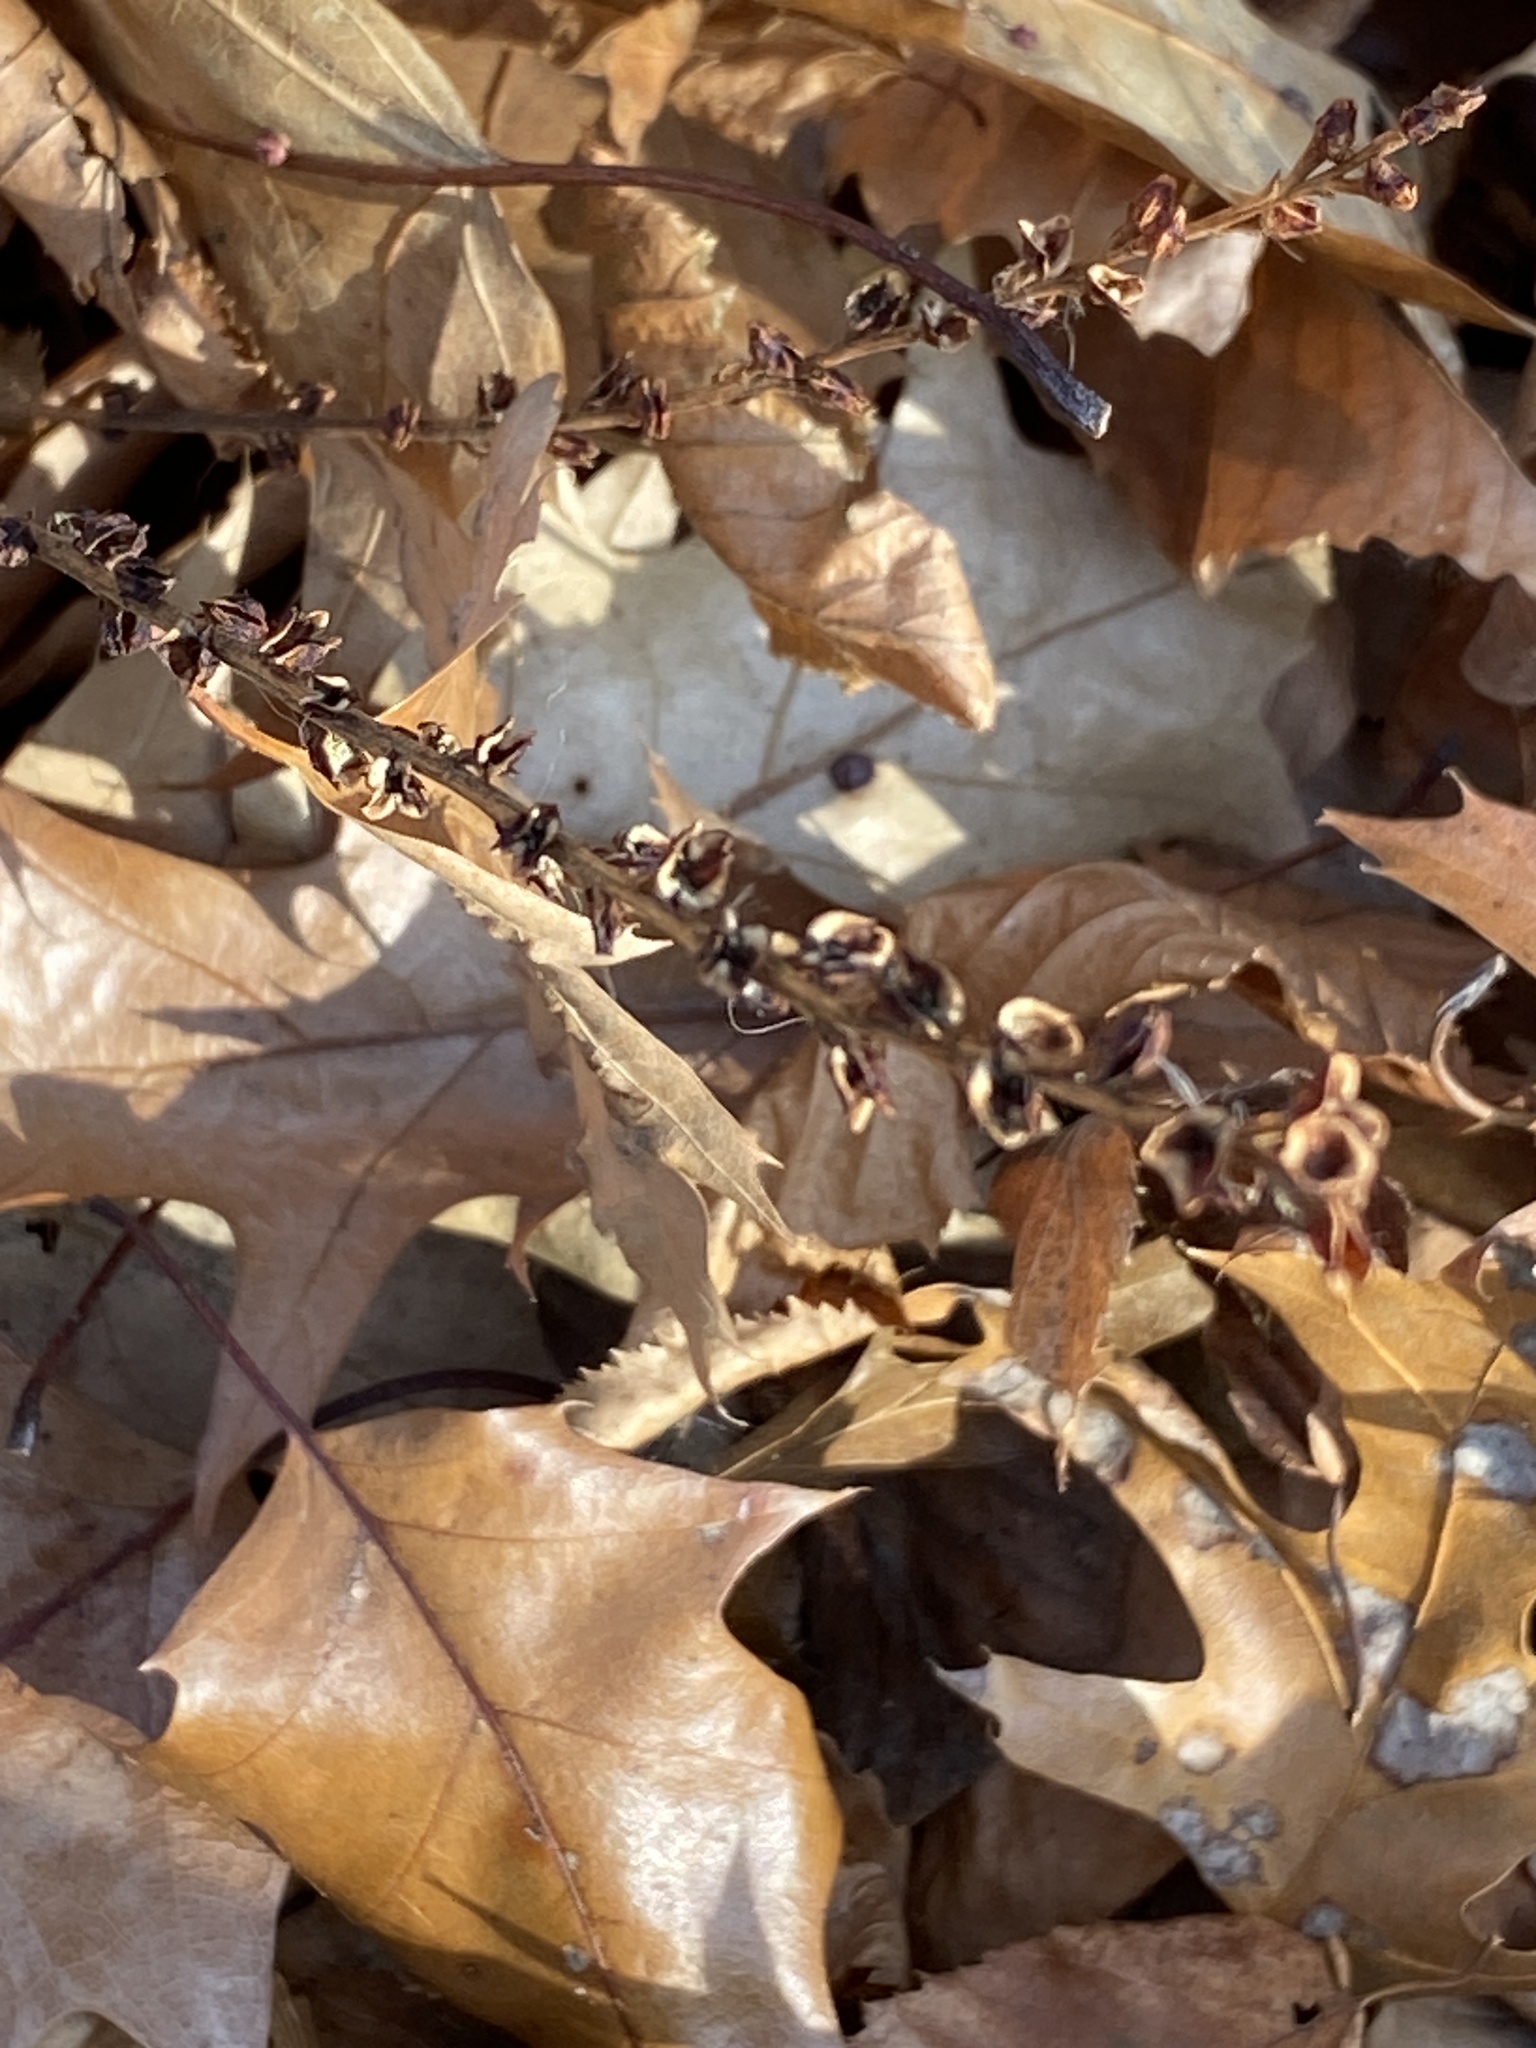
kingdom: Plantae
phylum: Tracheophyta
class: Magnoliopsida
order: Lamiales
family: Orobanchaceae
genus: Epifagus
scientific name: Epifagus virginiana
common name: Beechdrops
